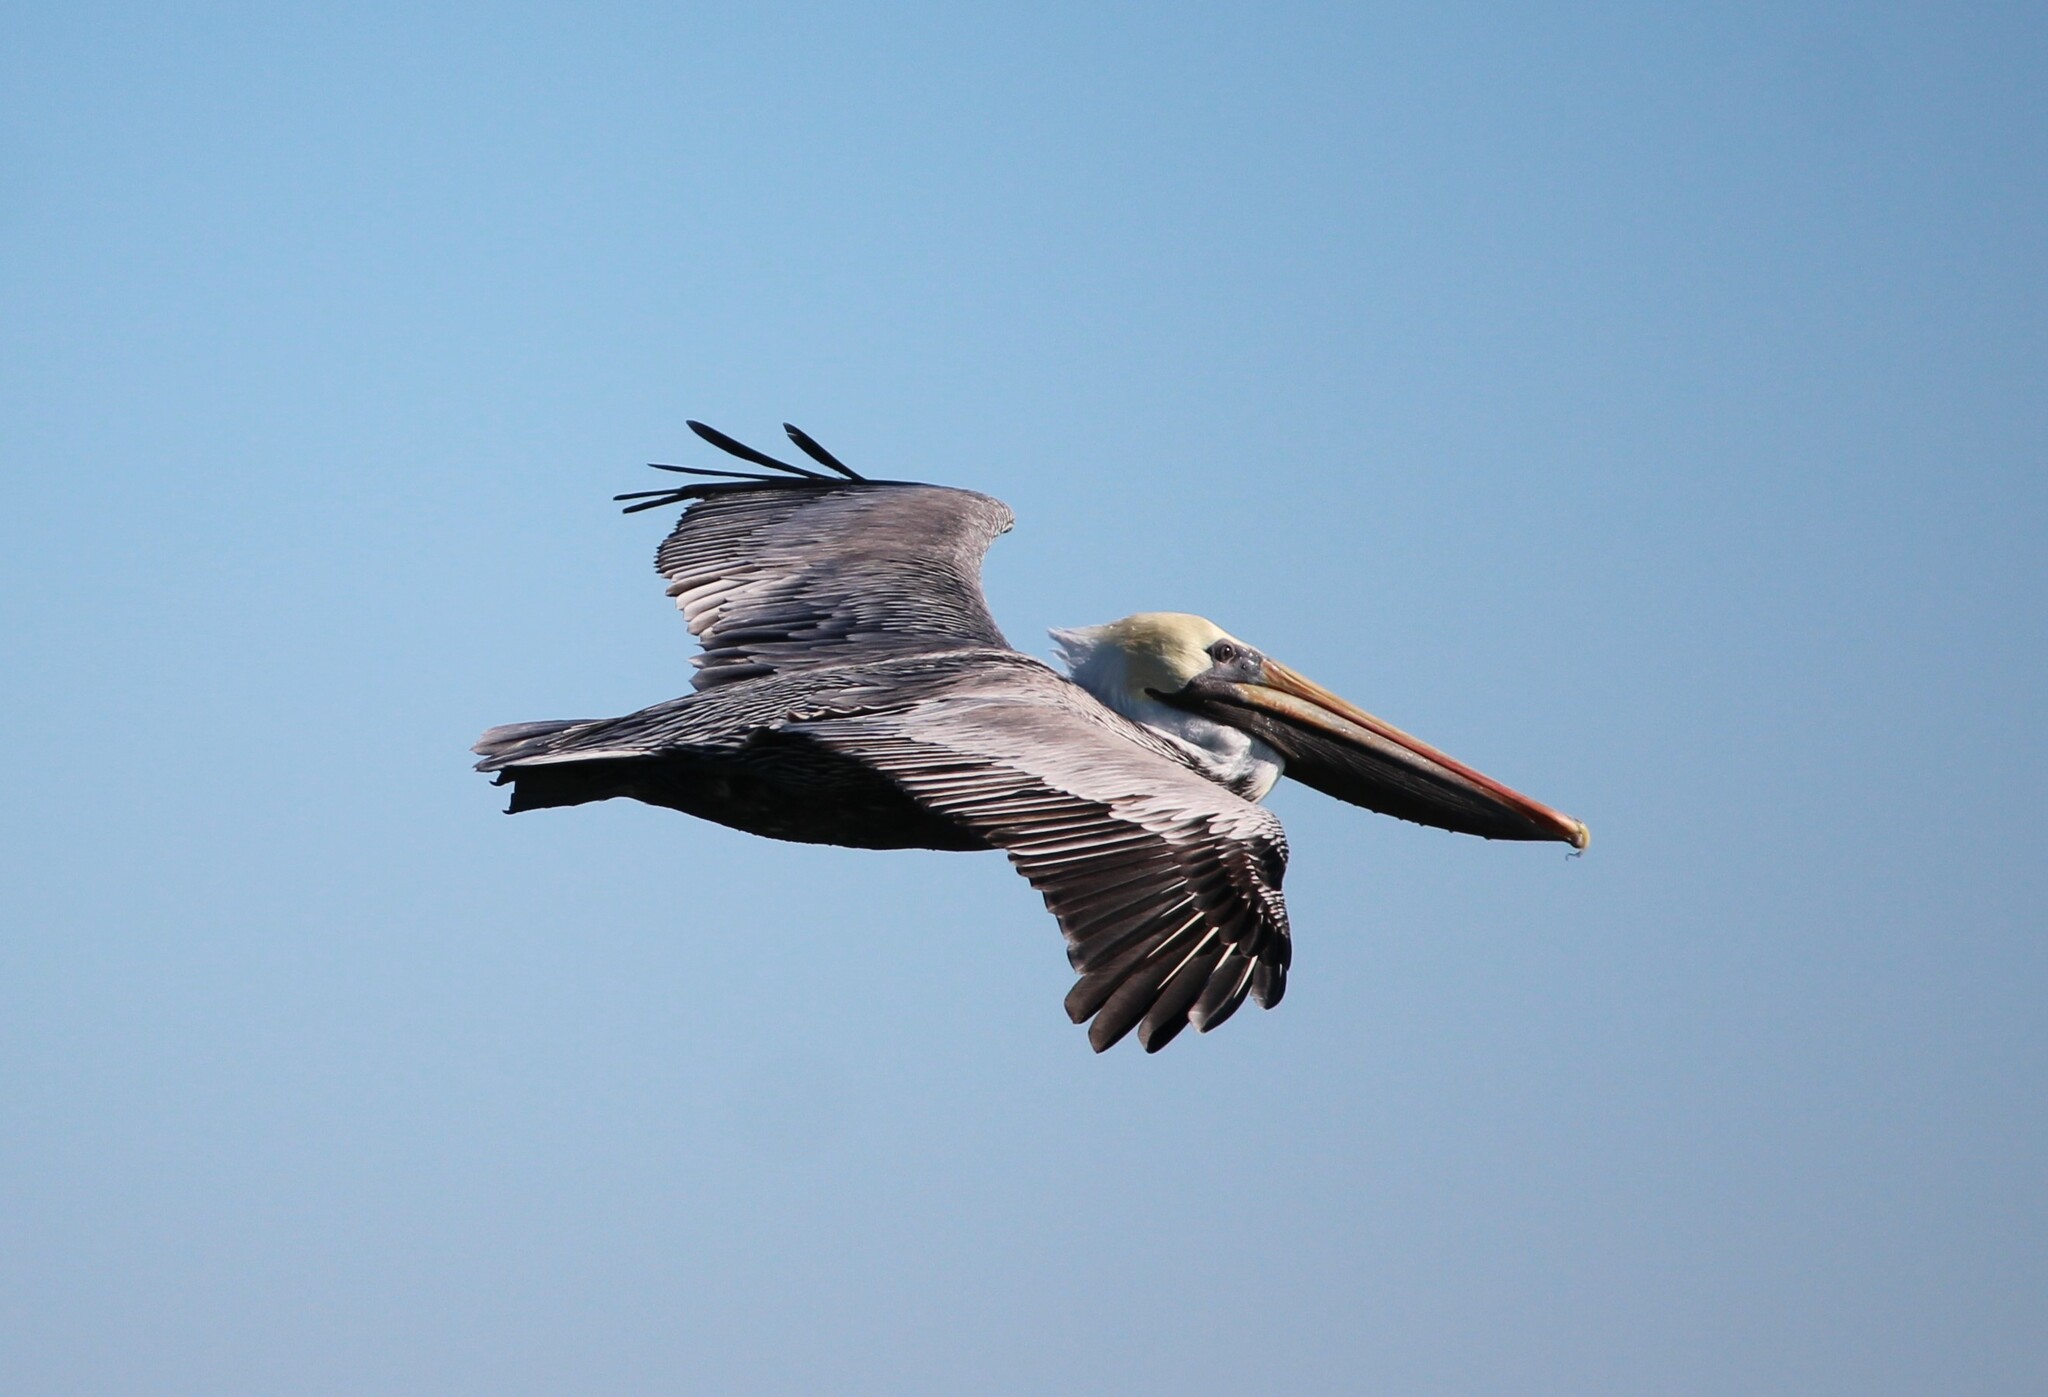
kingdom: Animalia
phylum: Chordata
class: Aves
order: Pelecaniformes
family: Pelecanidae
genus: Pelecanus
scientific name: Pelecanus occidentalis
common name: Brown pelican
